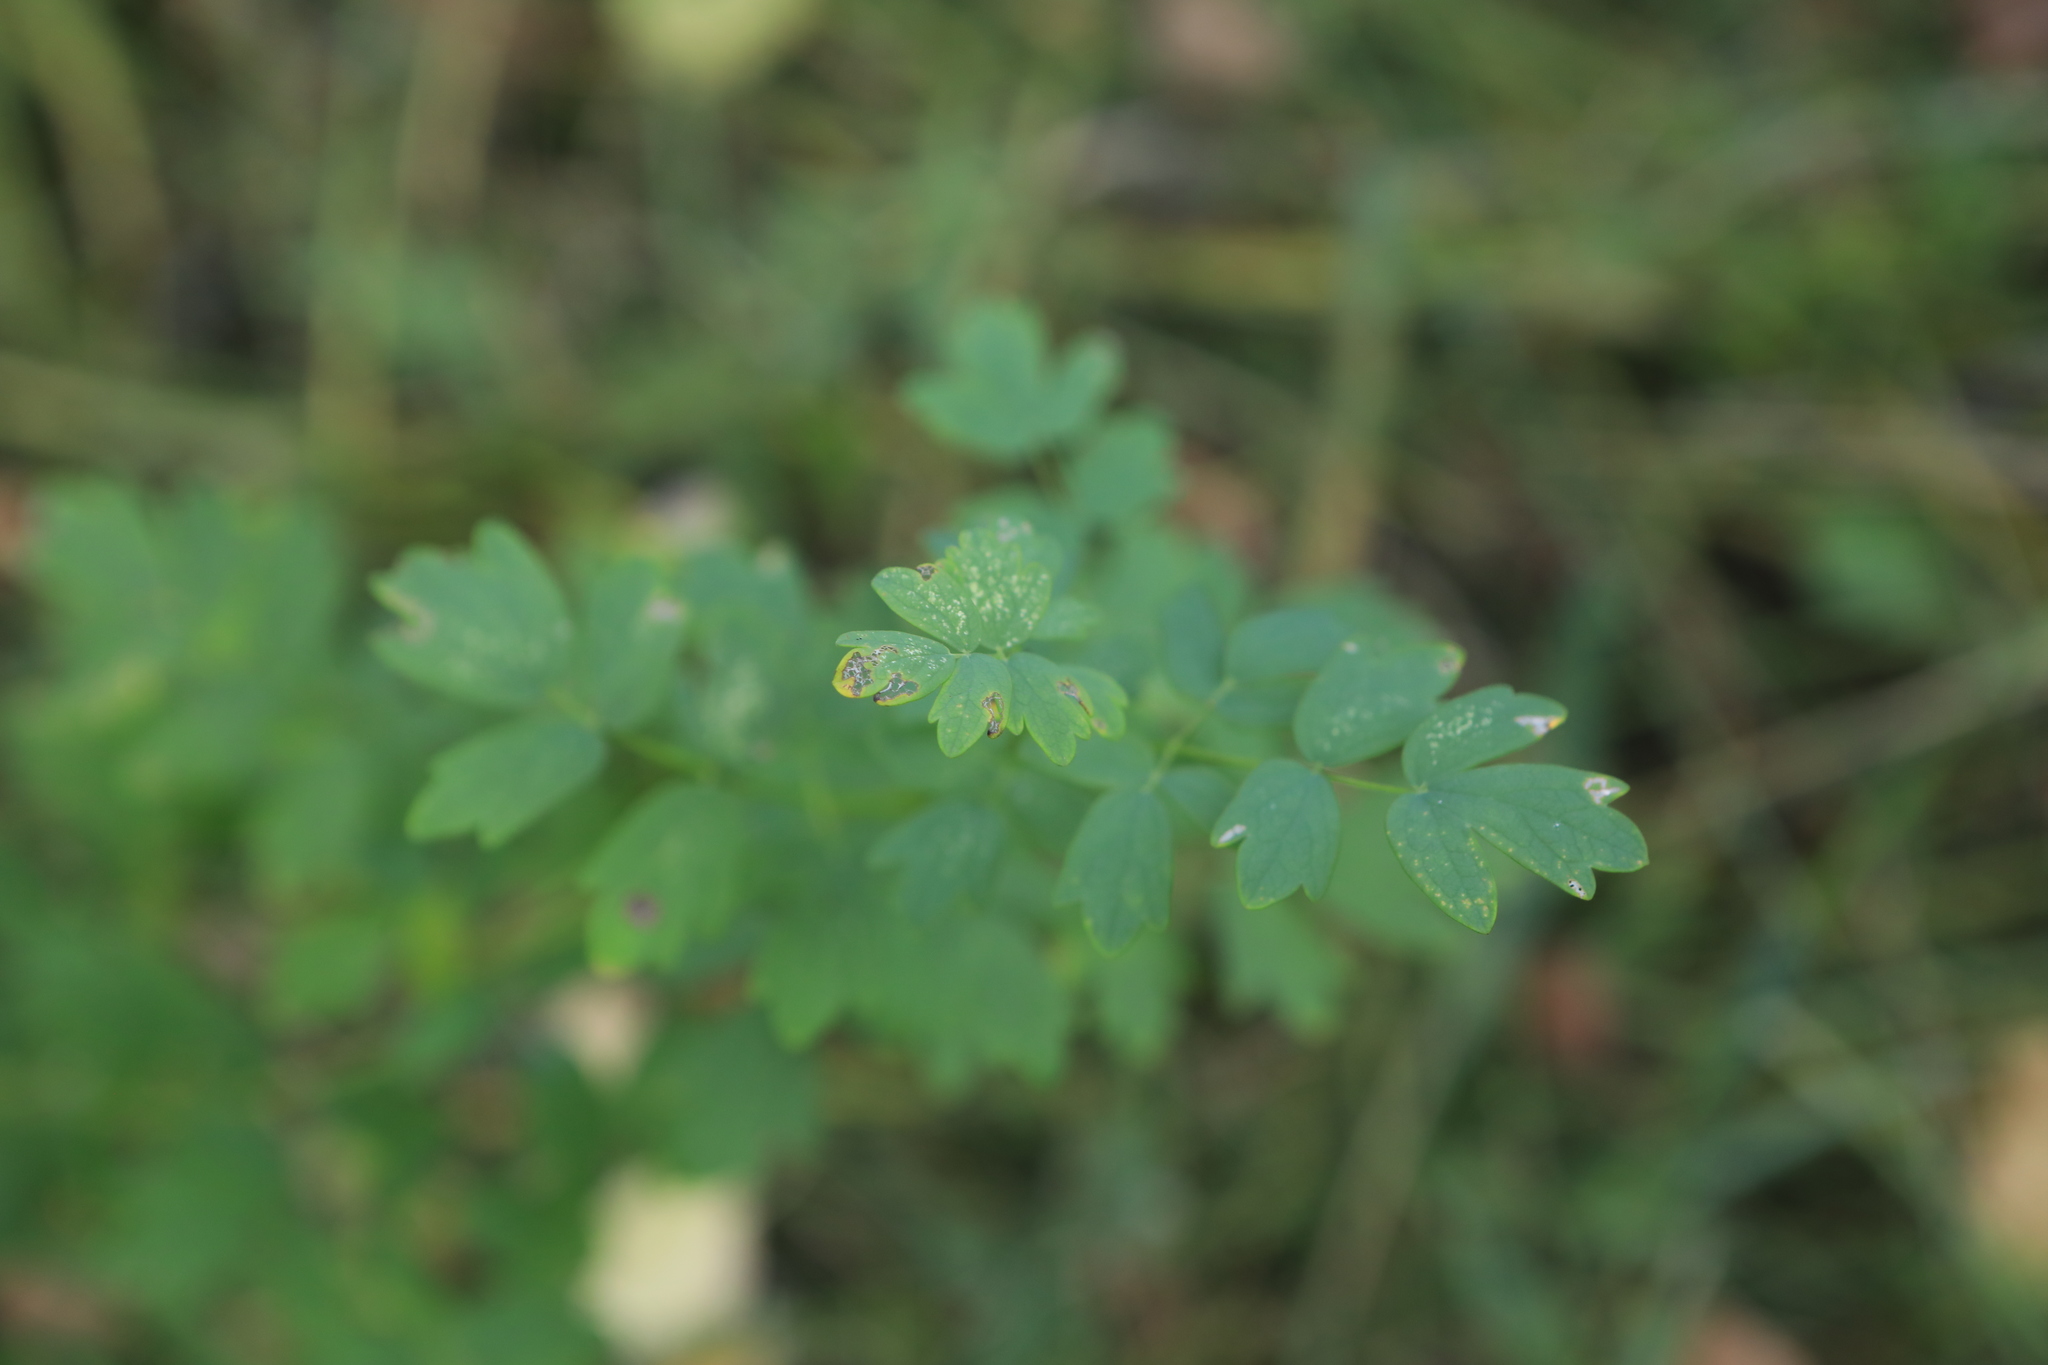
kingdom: Plantae
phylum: Tracheophyta
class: Magnoliopsida
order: Ranunculales
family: Ranunculaceae
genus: Thalictrum
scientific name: Thalictrum simplex
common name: Small meadow-rue
